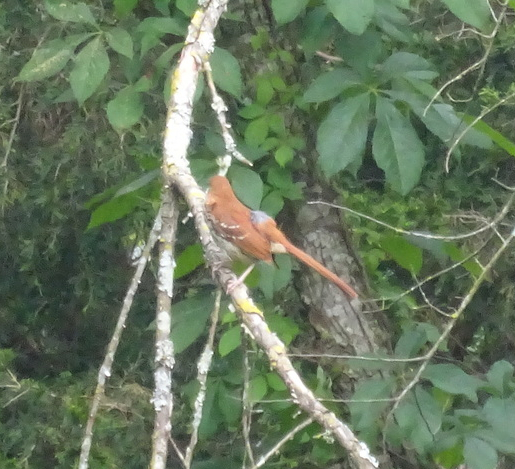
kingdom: Animalia
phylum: Chordata
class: Aves
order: Passeriformes
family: Mimidae
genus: Toxostoma
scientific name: Toxostoma rufum
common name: Brown thrasher
